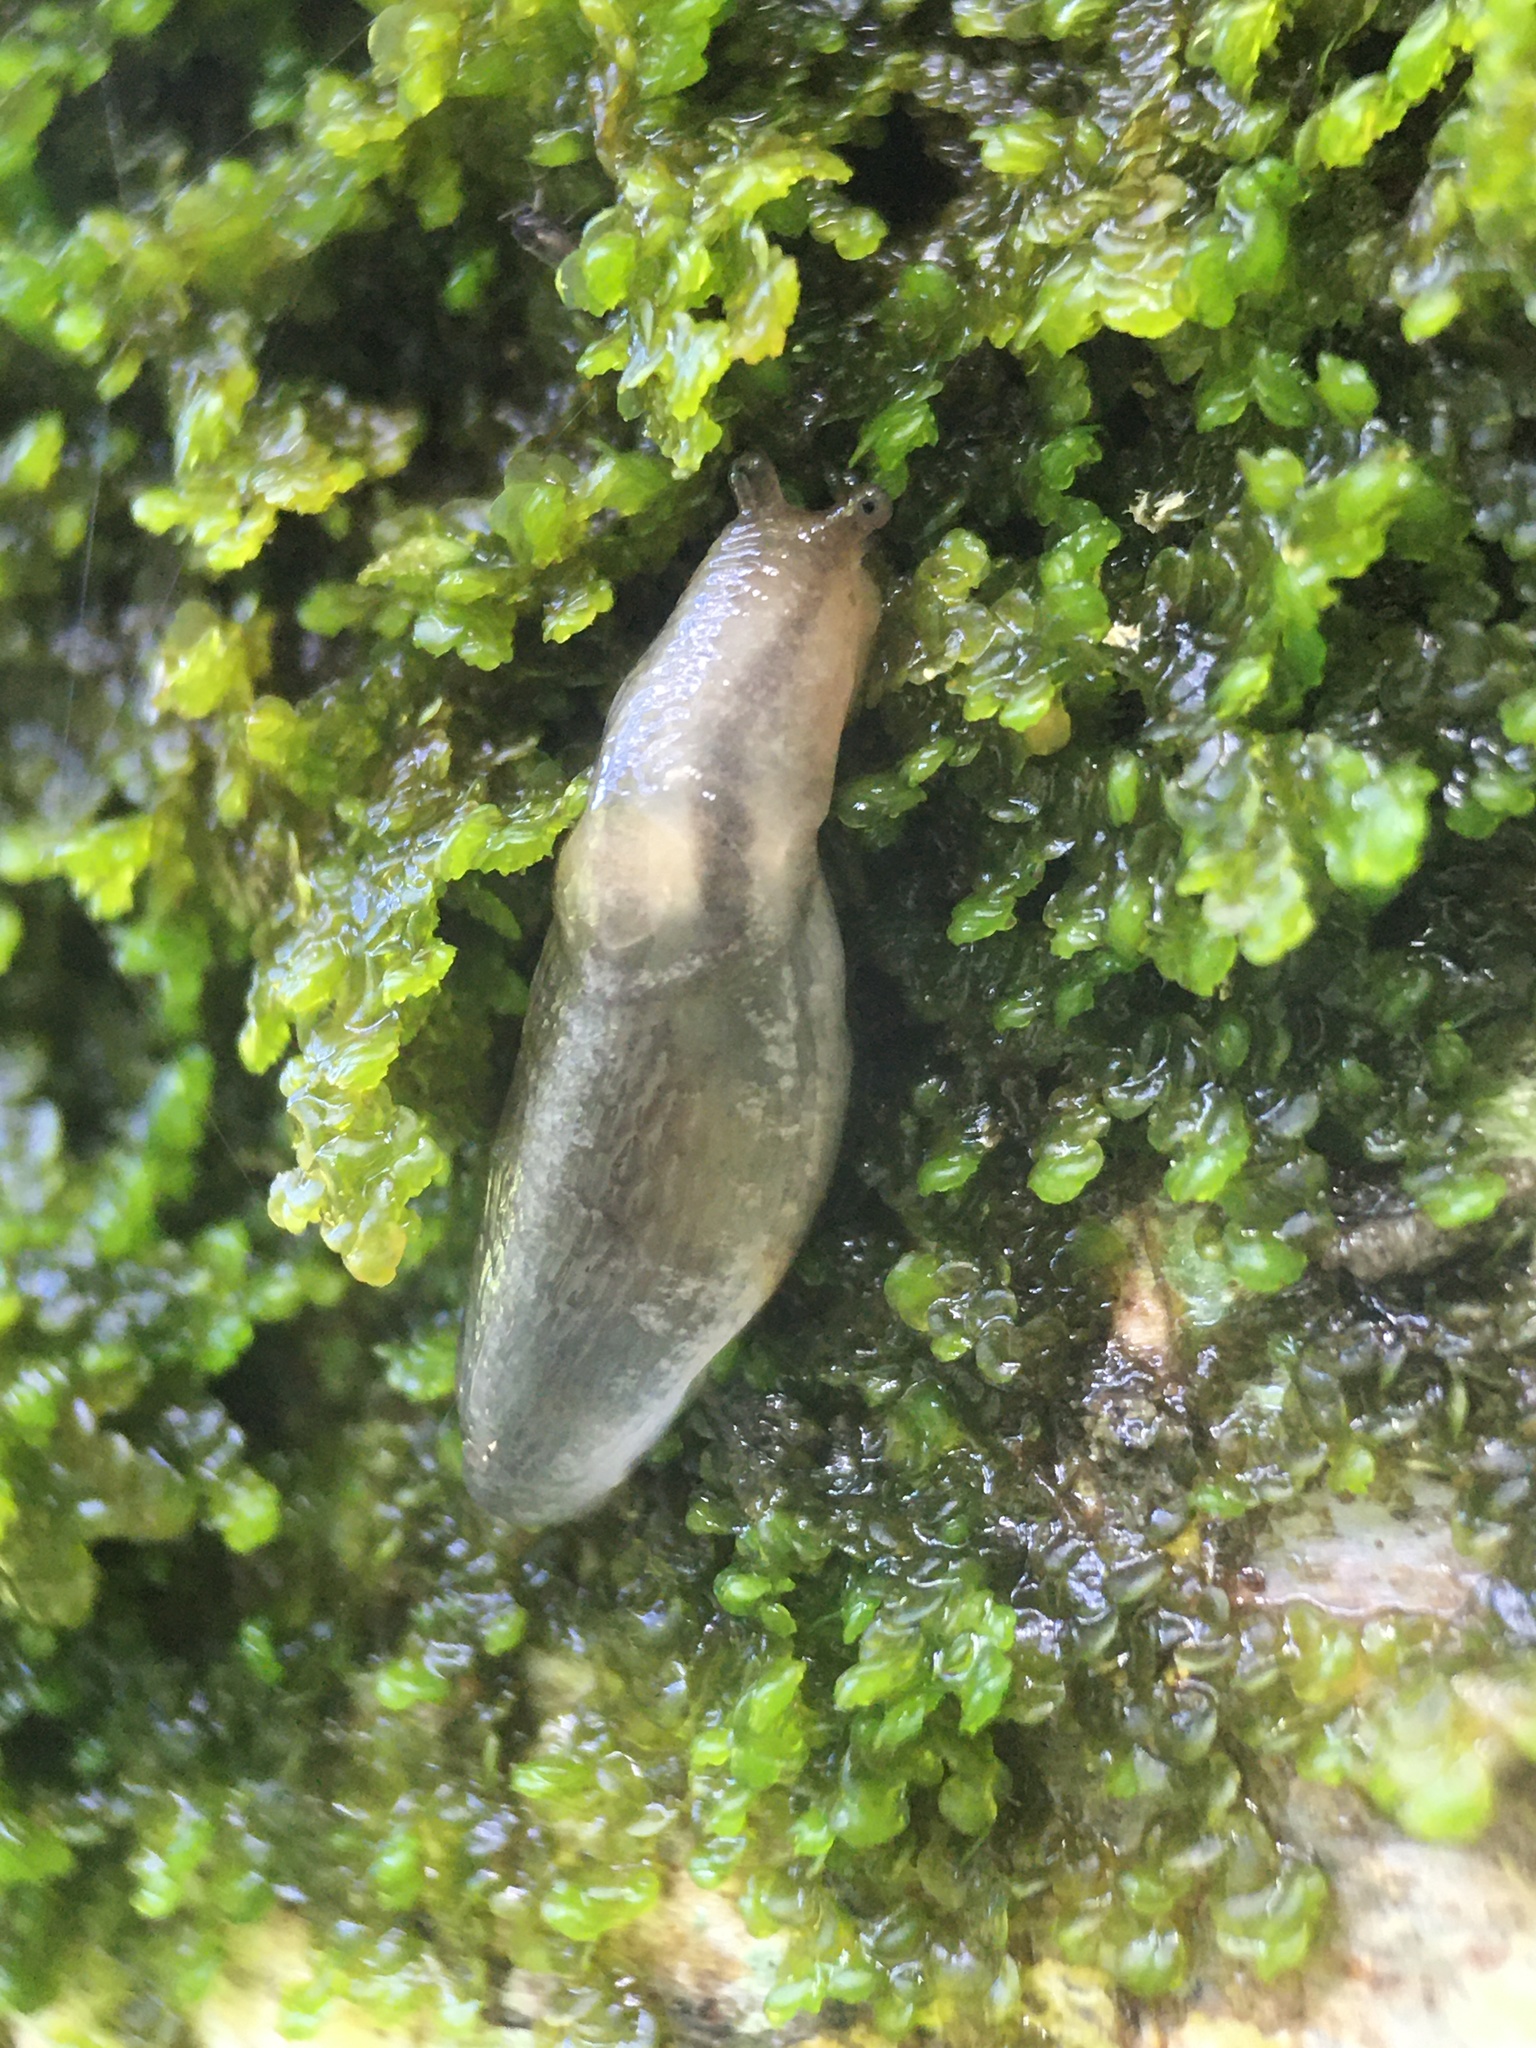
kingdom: Plantae
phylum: Marchantiophyta
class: Jungermanniopsida
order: Porellales
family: Frullaniaceae
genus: Frullania
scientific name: Frullania dilatata
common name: Dilated scalewort
